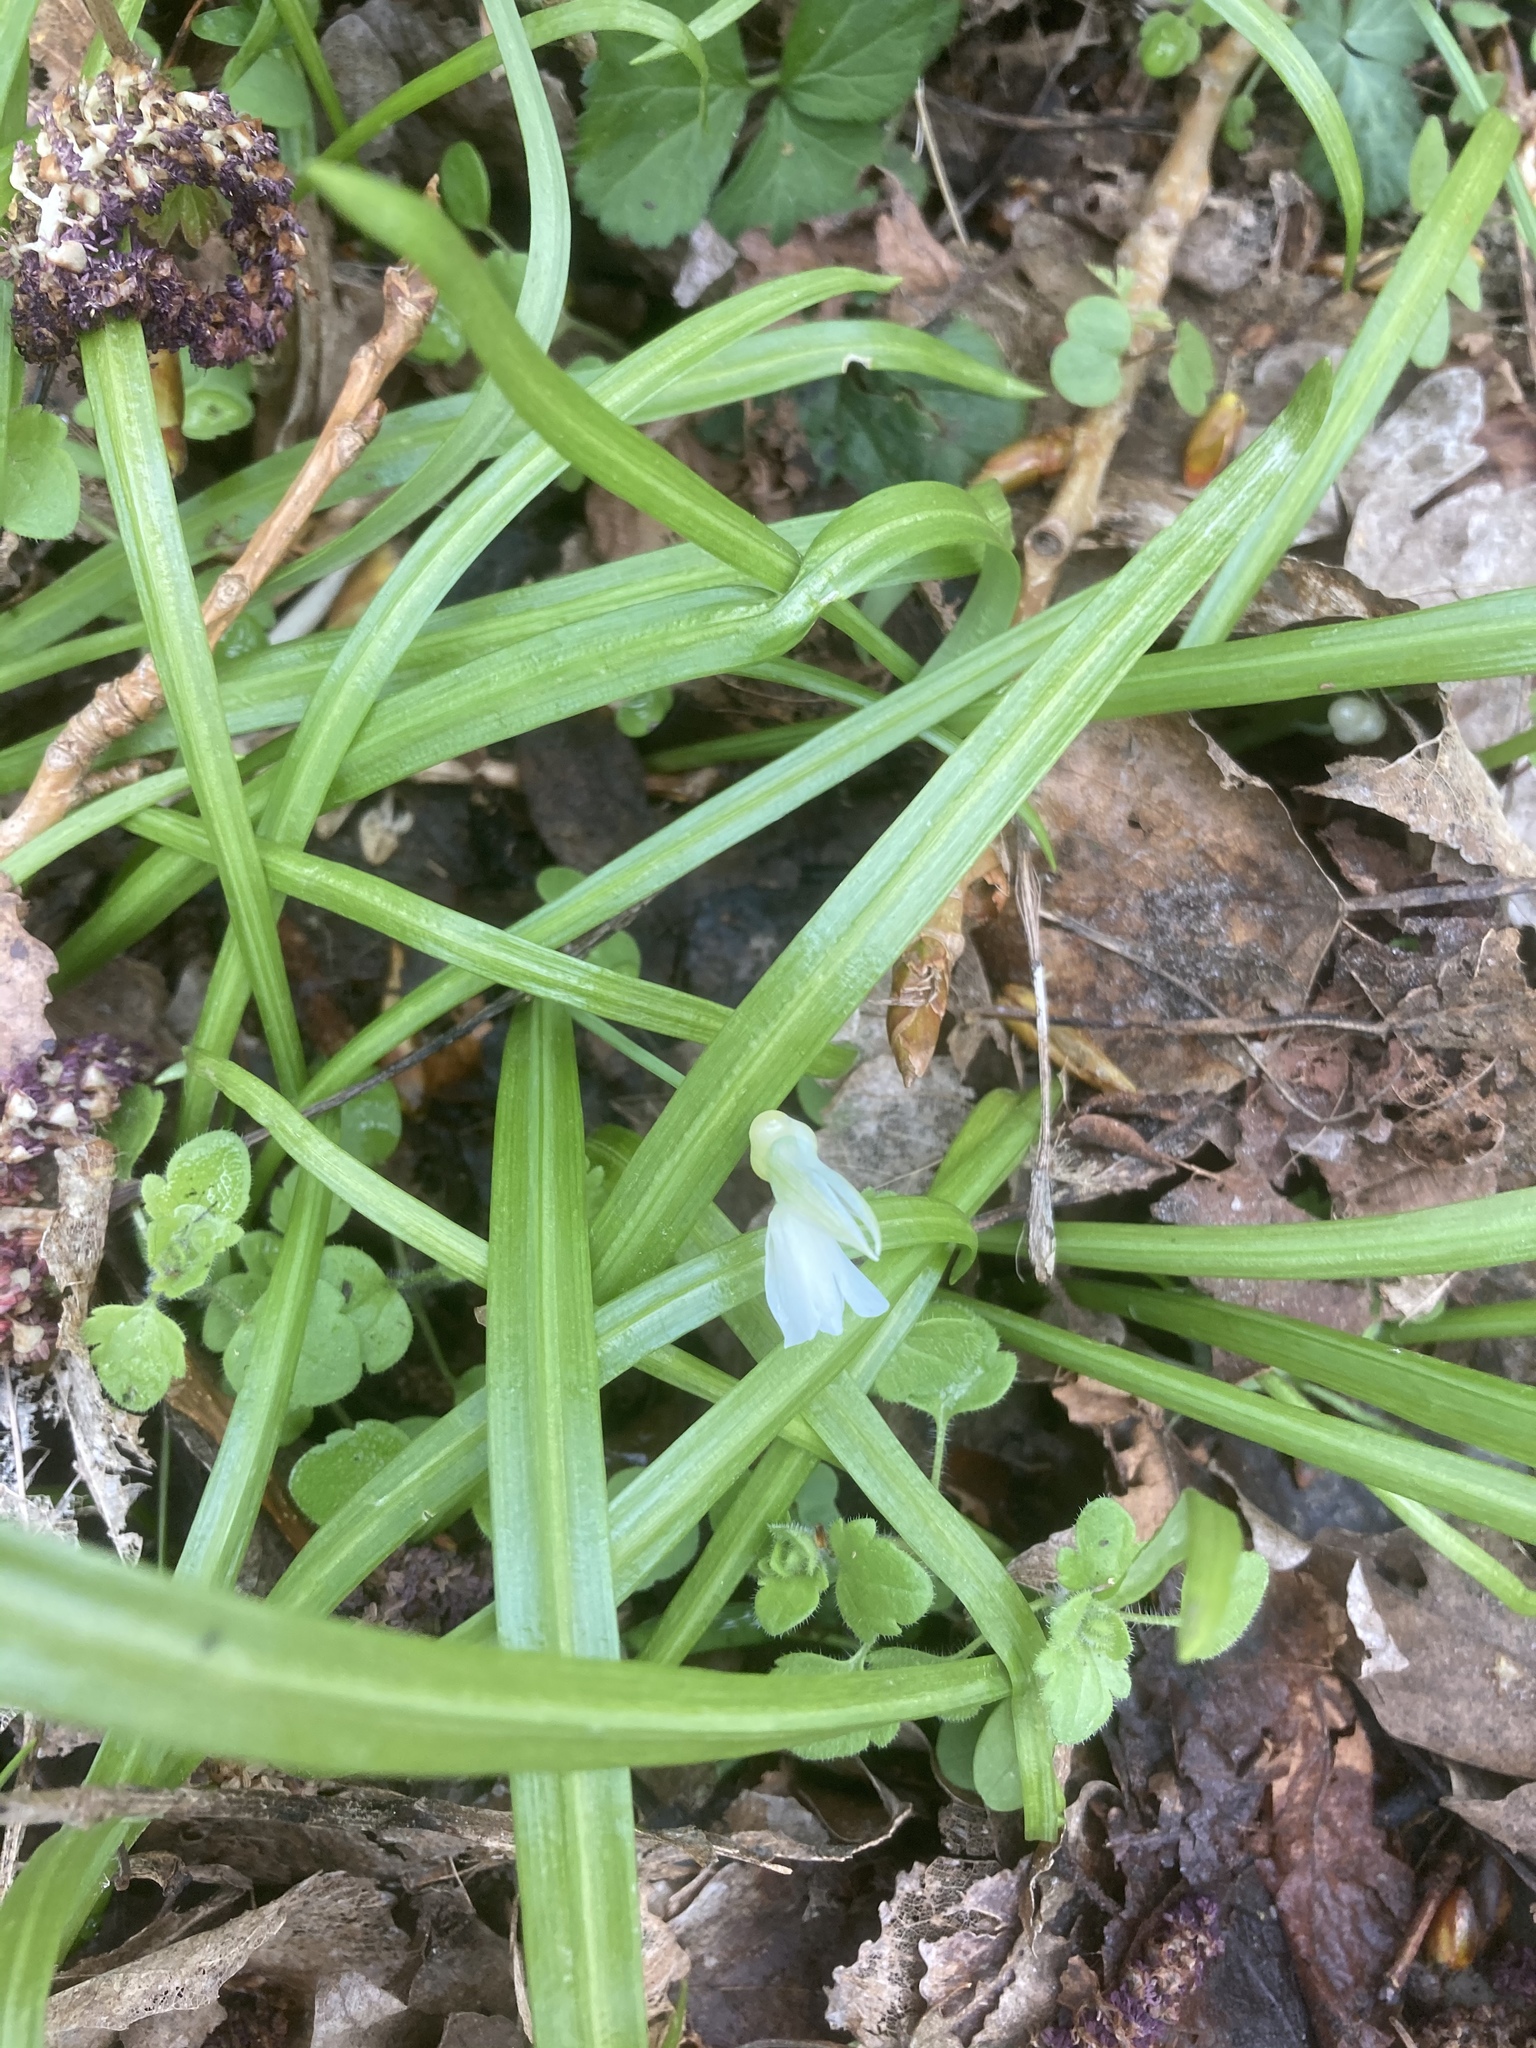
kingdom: Plantae
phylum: Tracheophyta
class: Liliopsida
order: Asparagales
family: Amaryllidaceae
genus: Allium
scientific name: Allium paradoxum
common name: Few-flowered garlic
